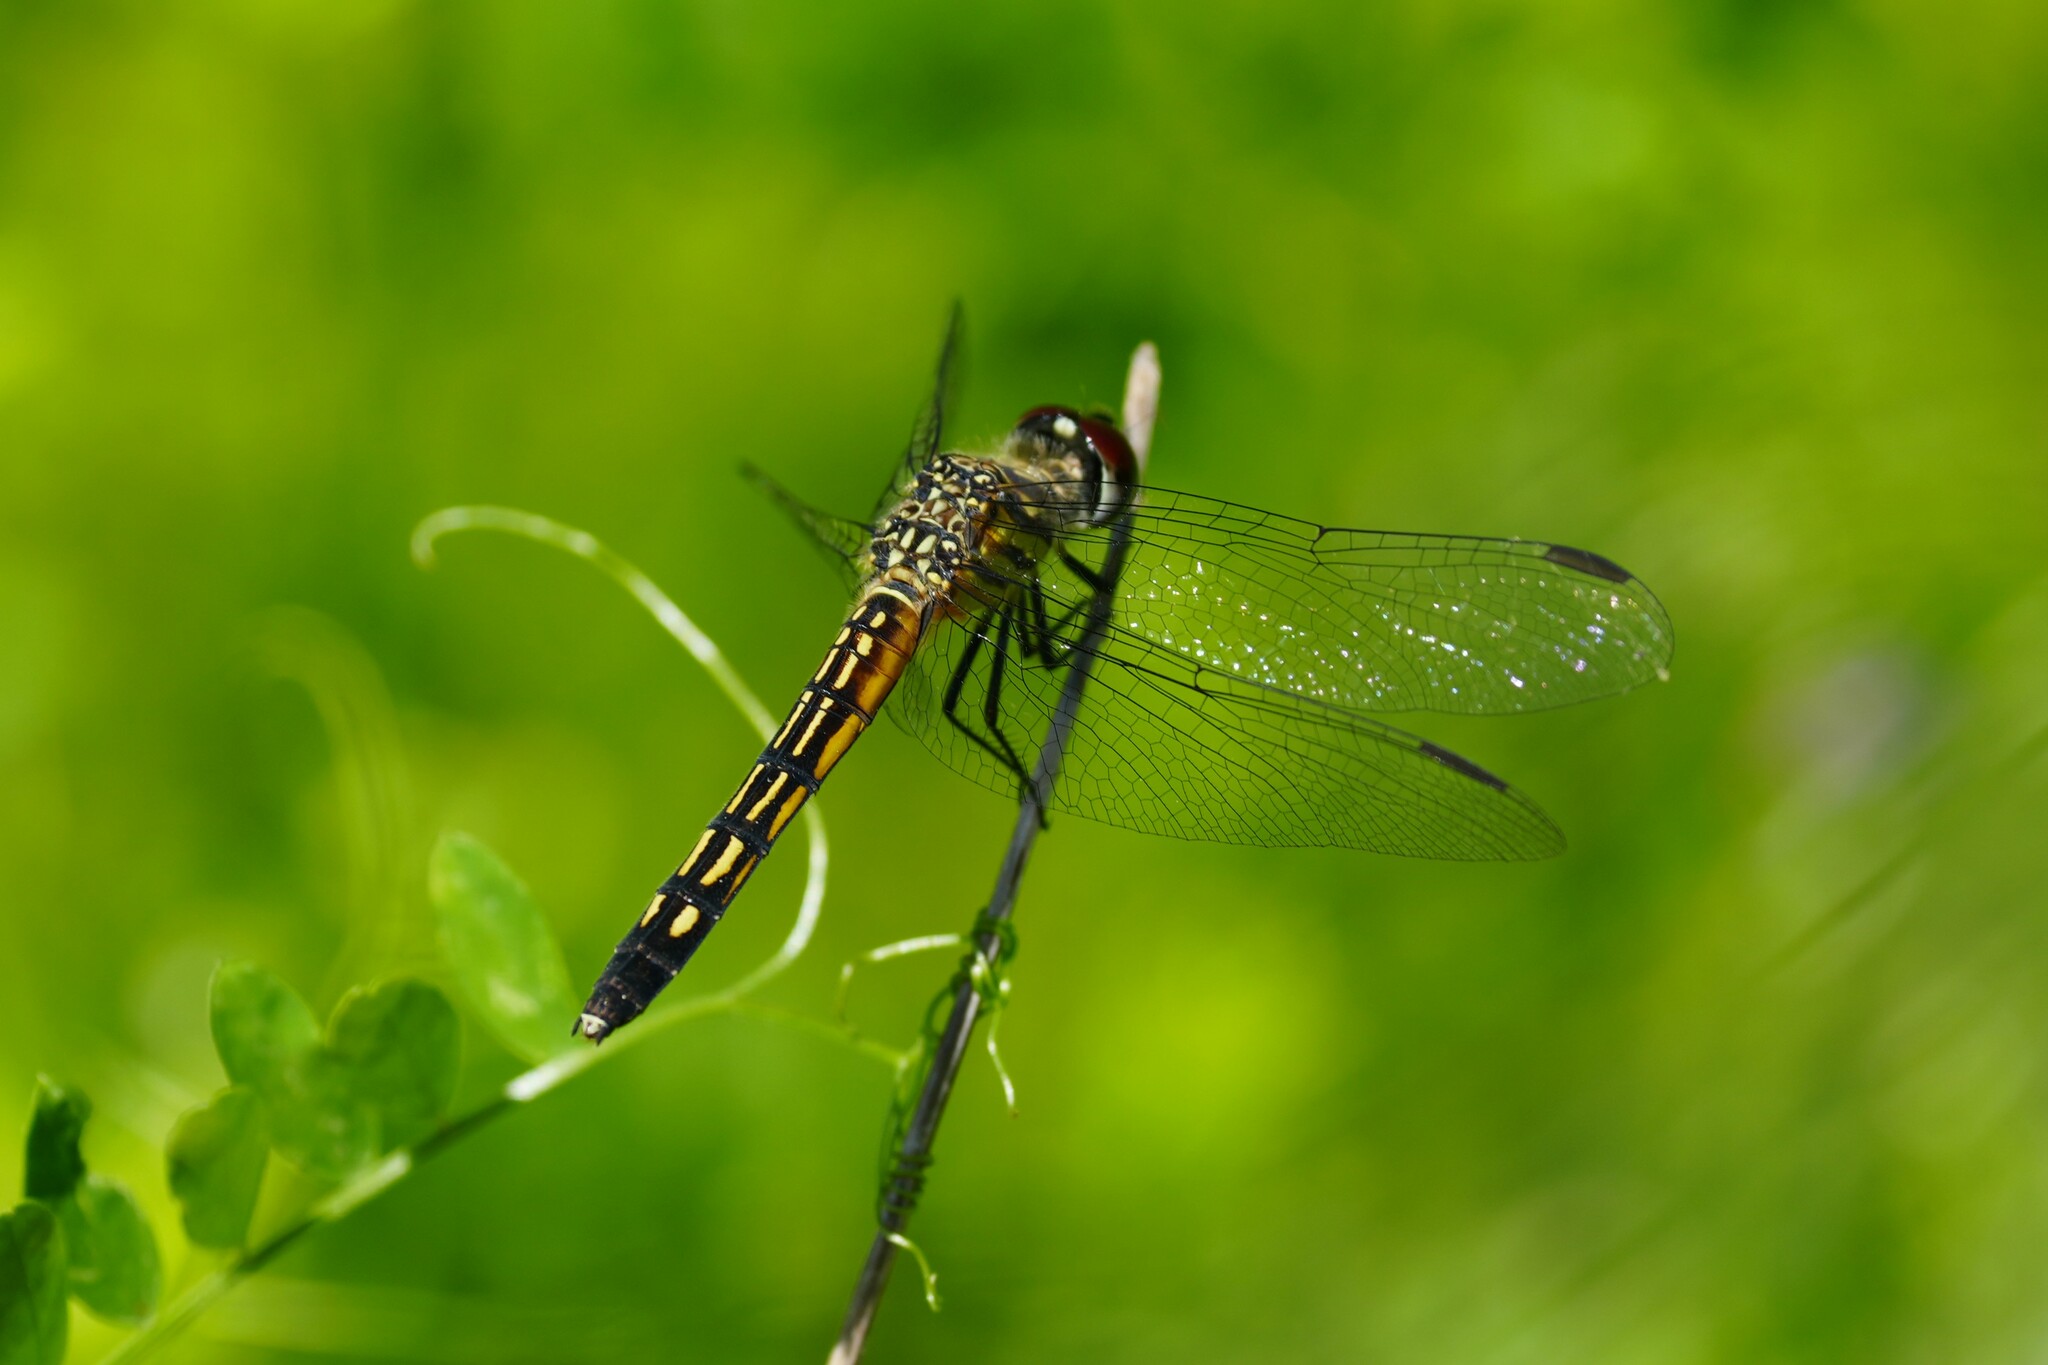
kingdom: Animalia
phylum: Arthropoda
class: Insecta
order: Odonata
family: Libellulidae
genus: Pachydiplax
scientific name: Pachydiplax longipennis
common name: Blue dasher
